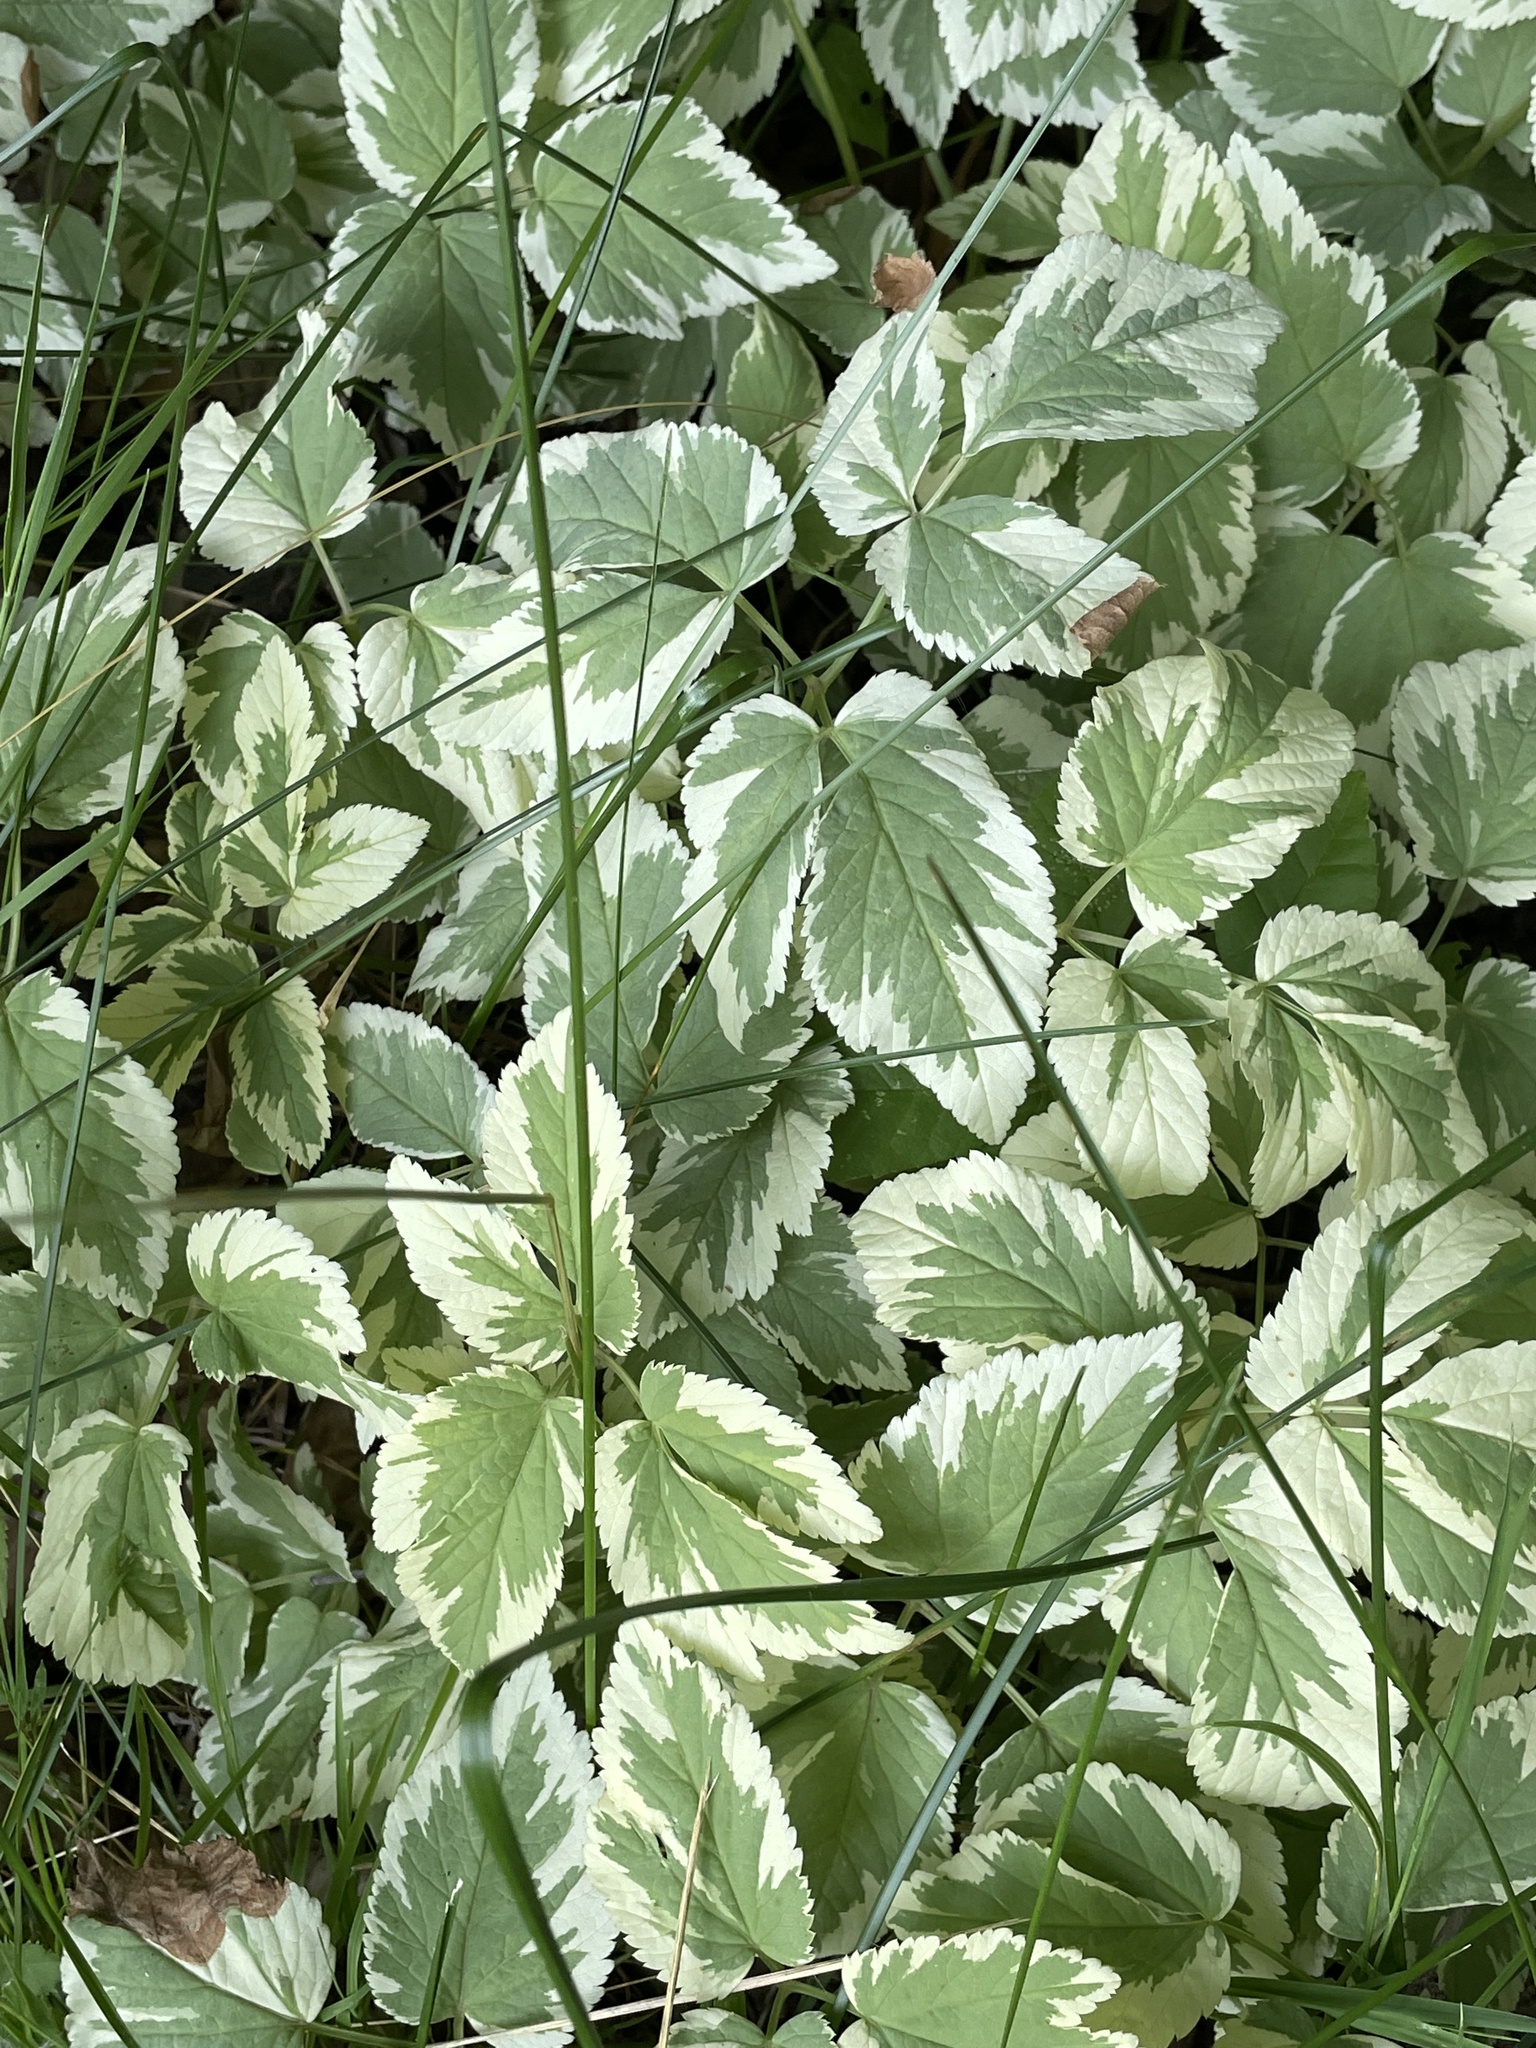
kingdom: Plantae
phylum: Tracheophyta
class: Magnoliopsida
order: Apiales
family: Apiaceae
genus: Aegopodium
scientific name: Aegopodium podagraria
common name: Ground-elder
